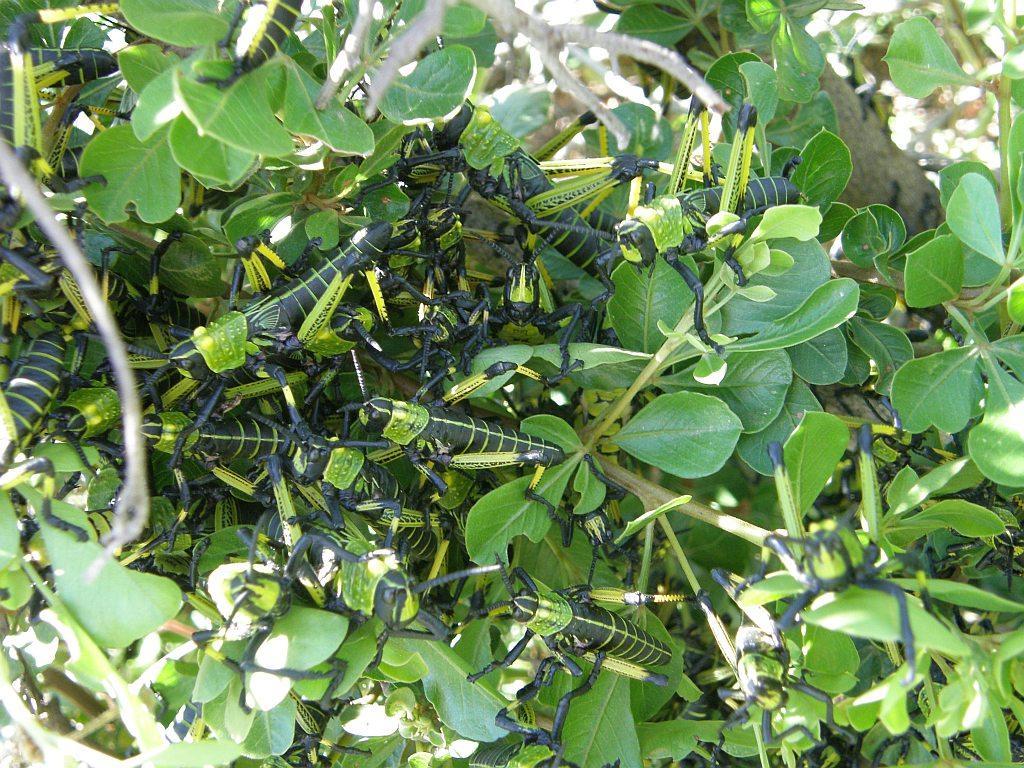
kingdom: Animalia
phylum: Arthropoda
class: Insecta
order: Orthoptera
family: Pyrgomorphidae
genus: Phymateus
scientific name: Phymateus leprosus
